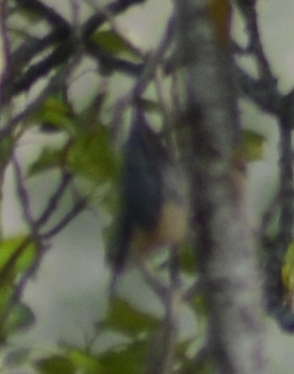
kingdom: Animalia
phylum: Chordata
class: Aves
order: Passeriformes
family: Sittidae
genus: Sitta
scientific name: Sitta europaea
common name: Eurasian nuthatch
